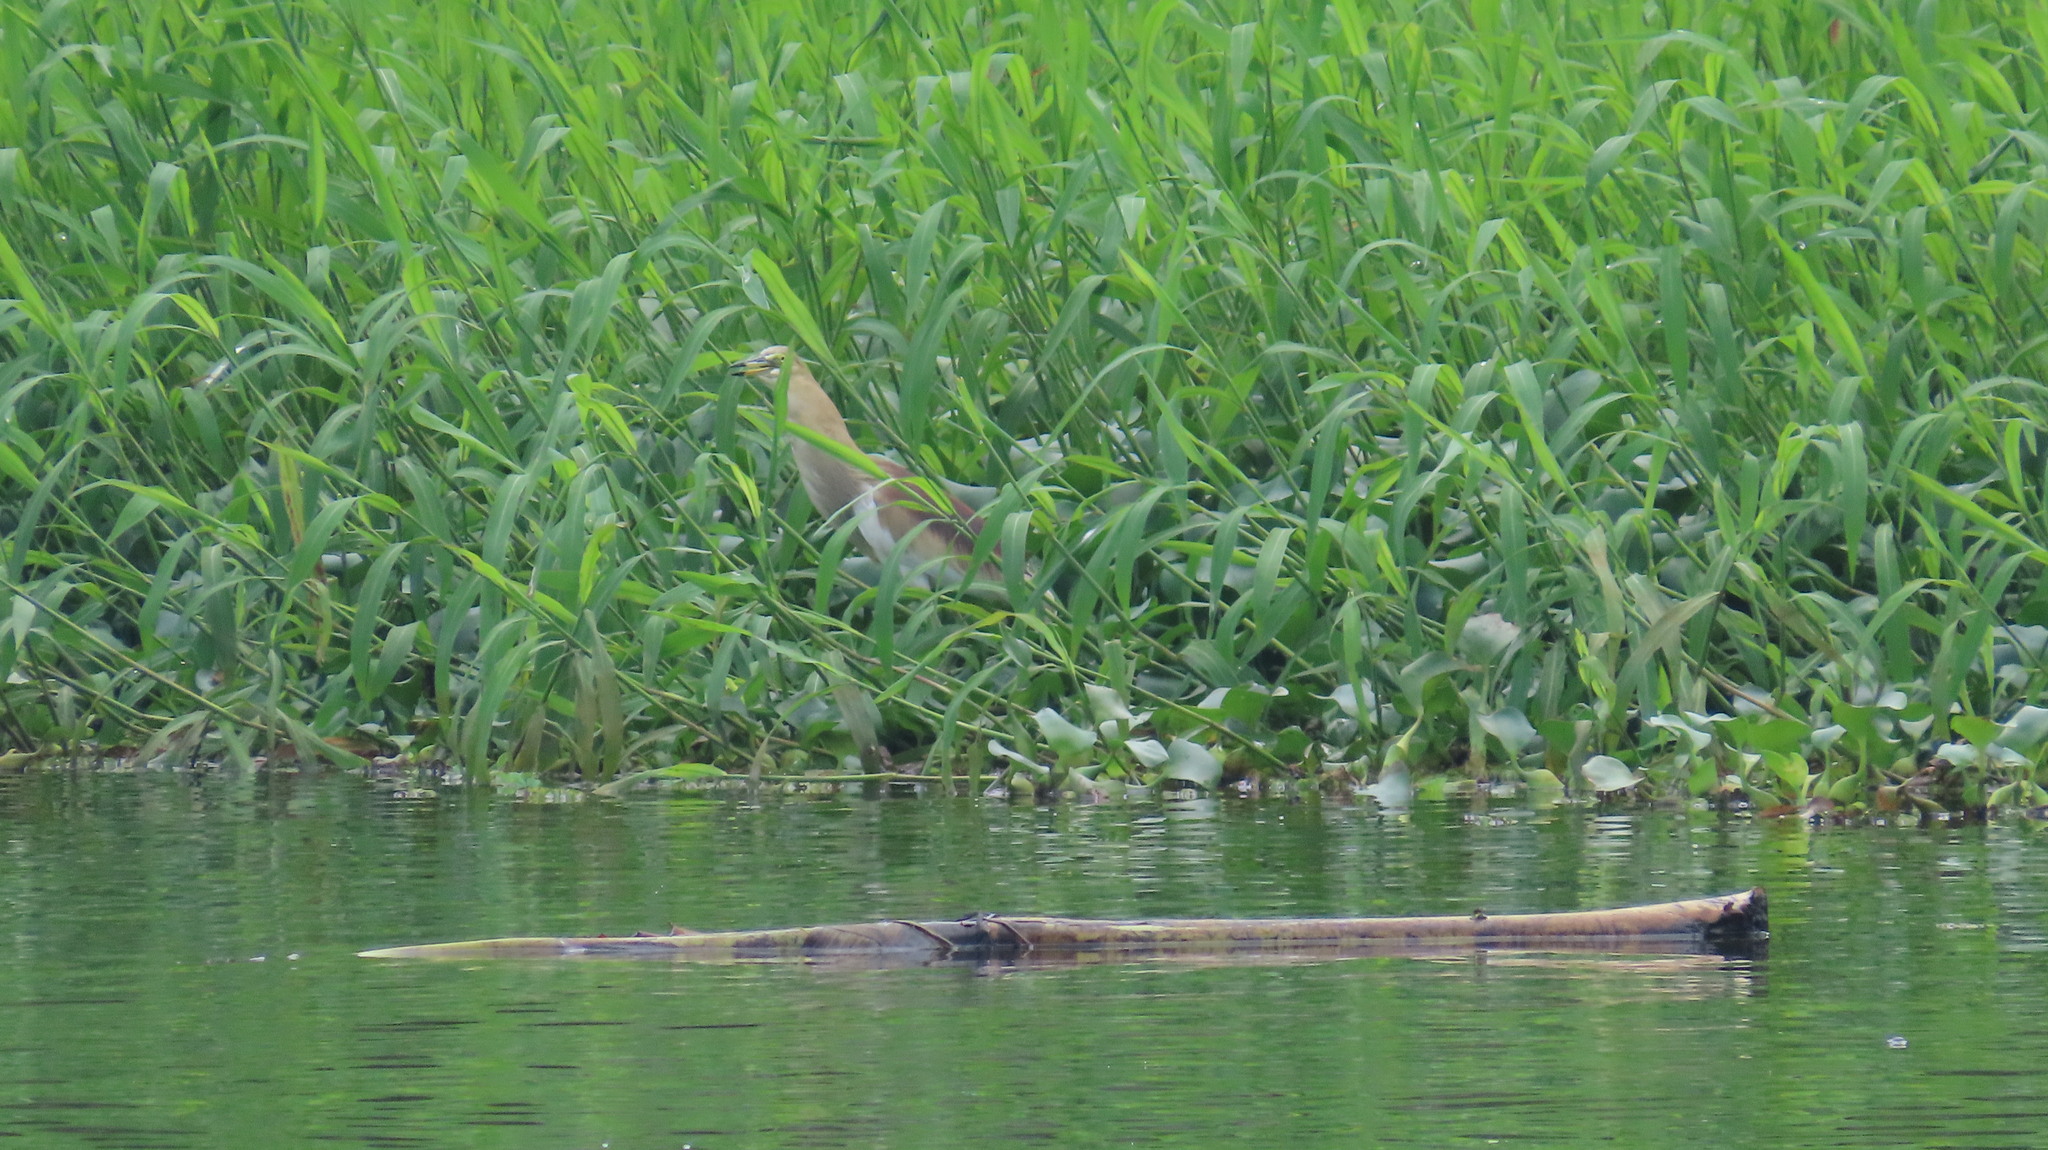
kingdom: Animalia
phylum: Chordata
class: Aves
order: Pelecaniformes
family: Ardeidae
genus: Ardeola
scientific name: Ardeola grayii
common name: Indian pond heron
